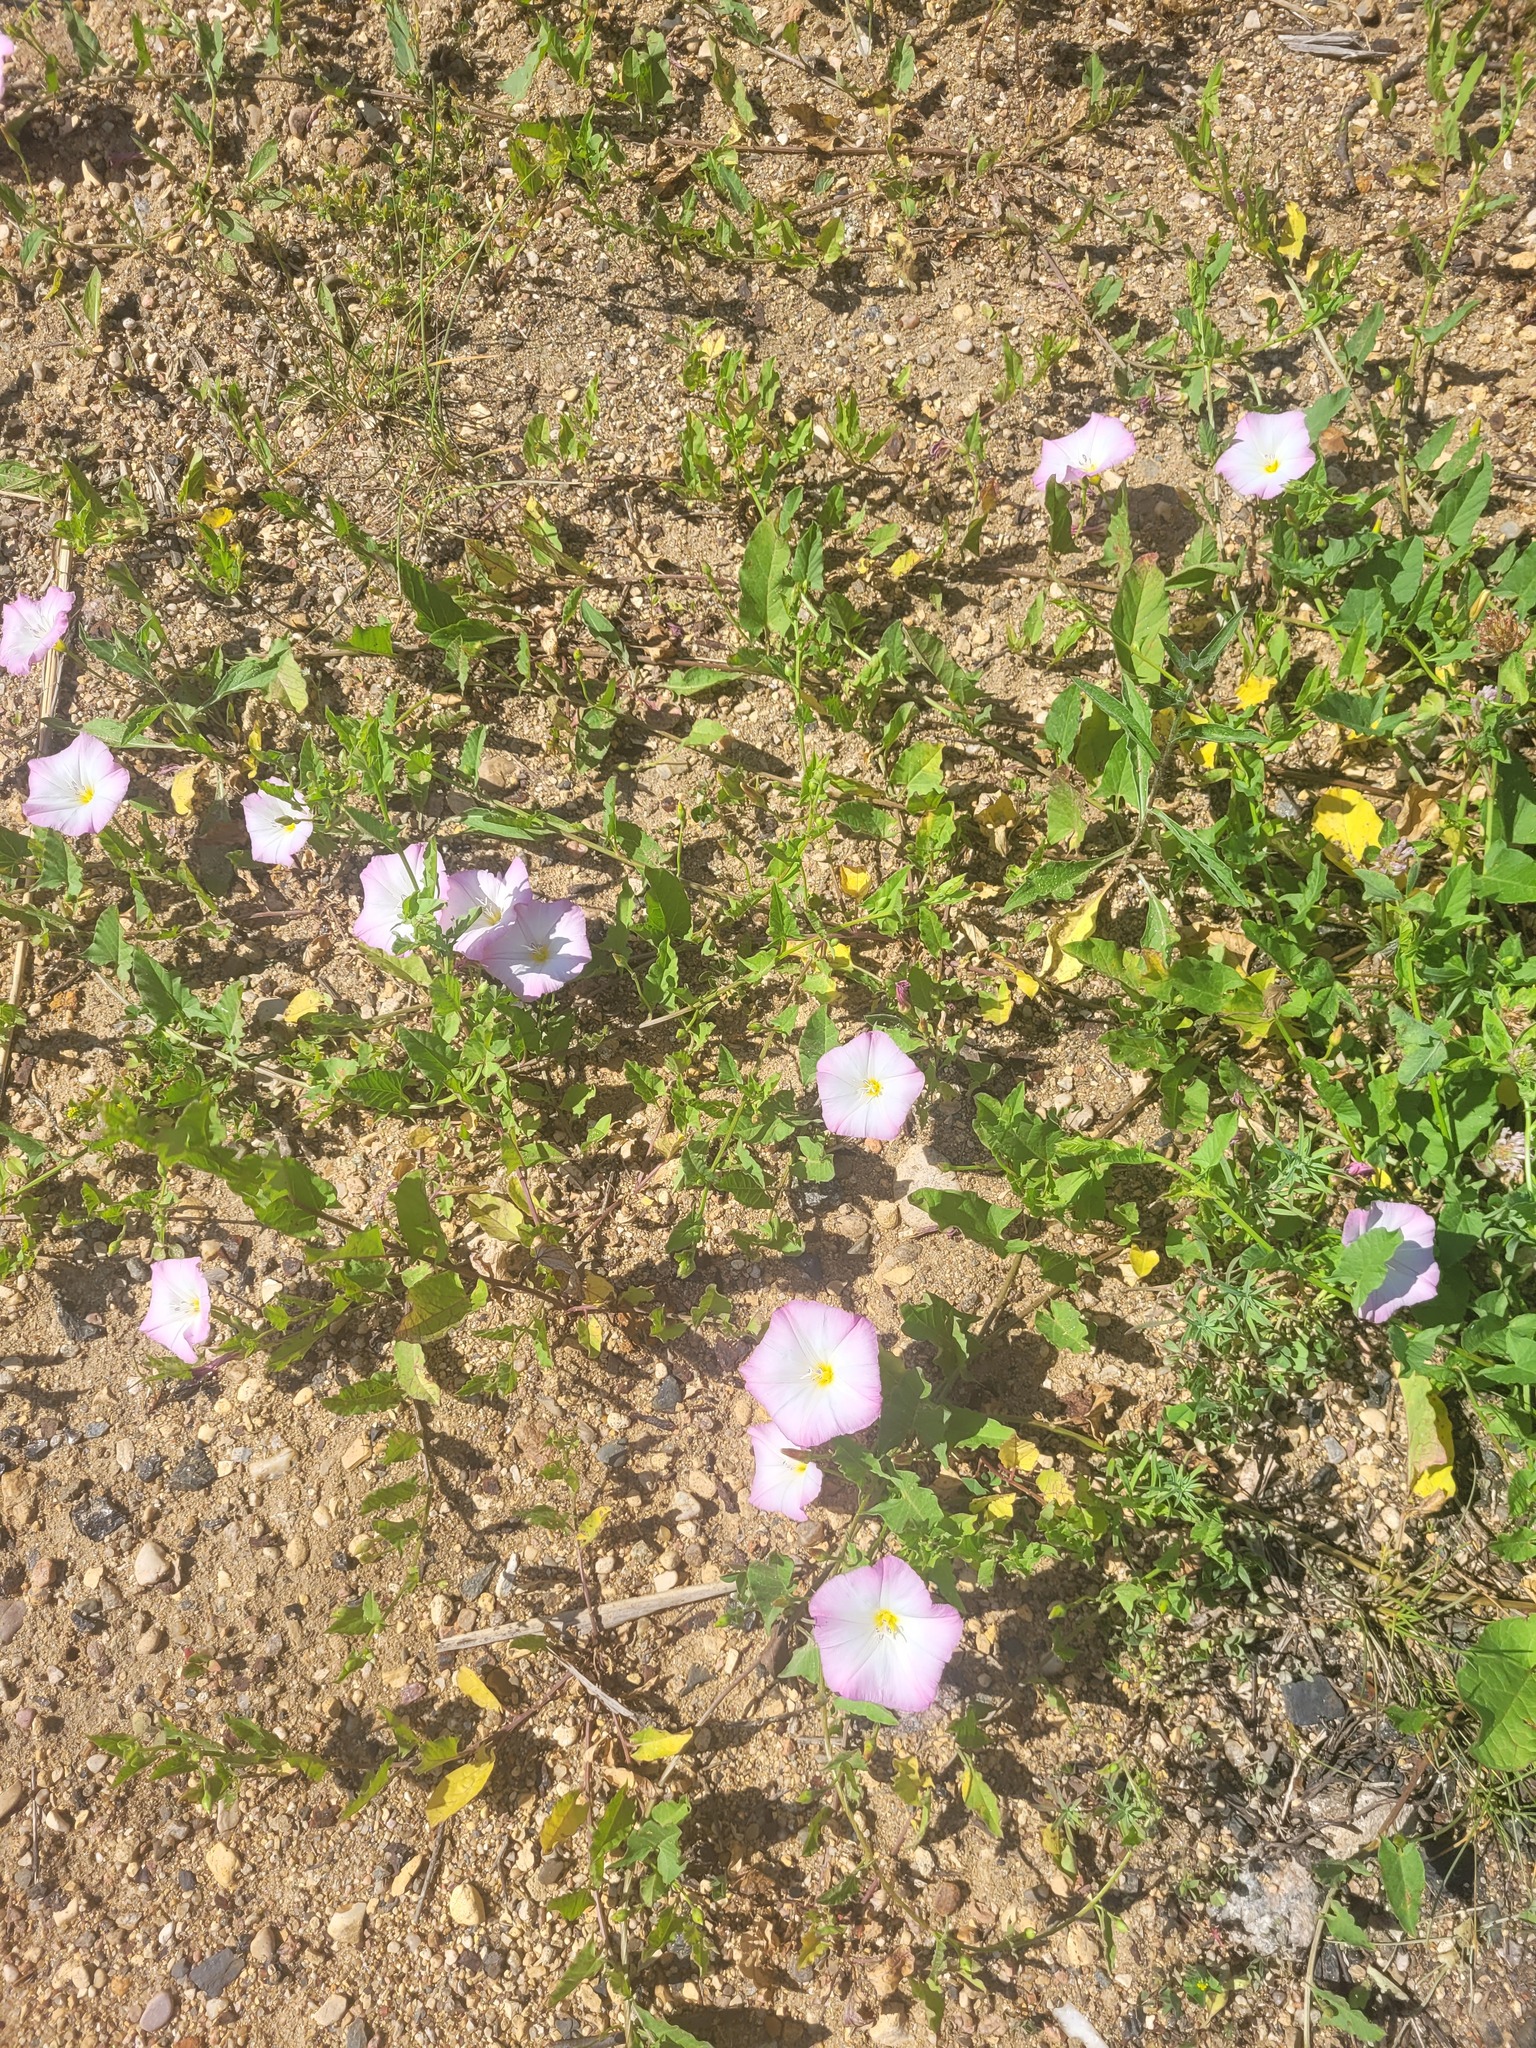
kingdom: Plantae
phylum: Tracheophyta
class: Magnoliopsida
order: Solanales
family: Convolvulaceae
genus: Convolvulus
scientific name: Convolvulus arvensis
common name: Field bindweed
